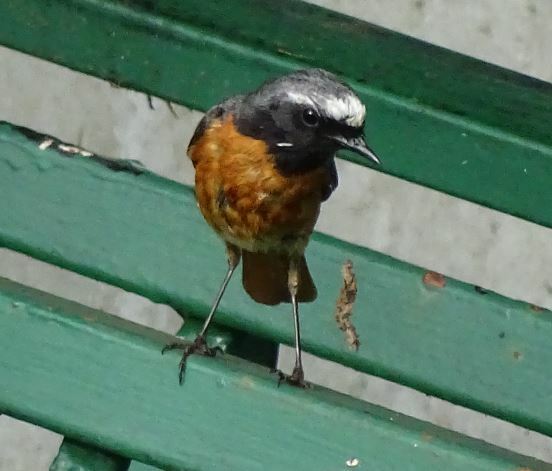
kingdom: Animalia
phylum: Chordata
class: Aves
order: Passeriformes
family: Muscicapidae
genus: Phoenicurus
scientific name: Phoenicurus phoenicurus
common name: Common redstart
